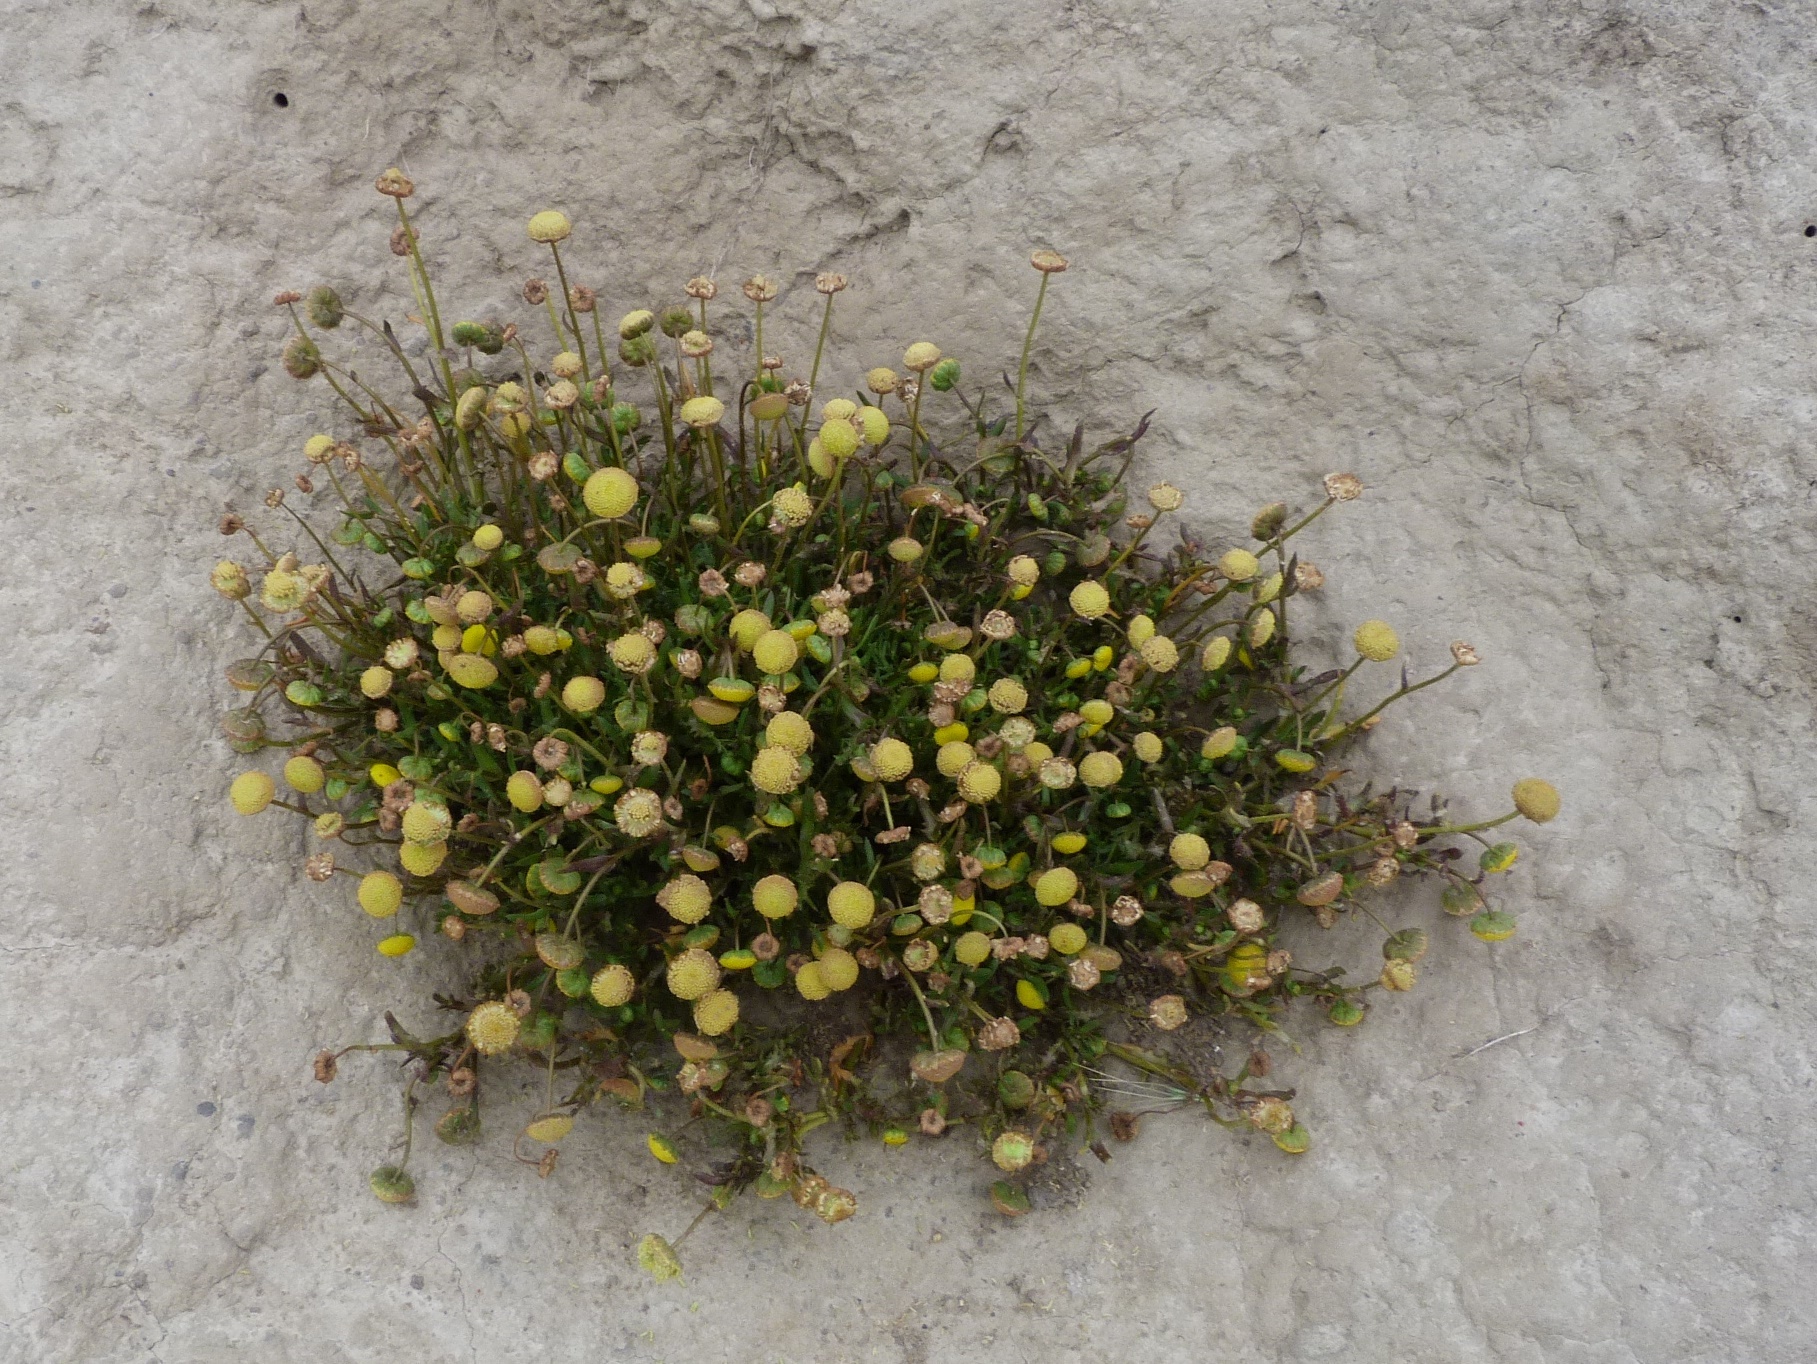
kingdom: Plantae
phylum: Tracheophyta
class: Magnoliopsida
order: Asterales
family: Asteraceae
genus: Cotula
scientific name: Cotula coronopifolia
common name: Buttonweed
